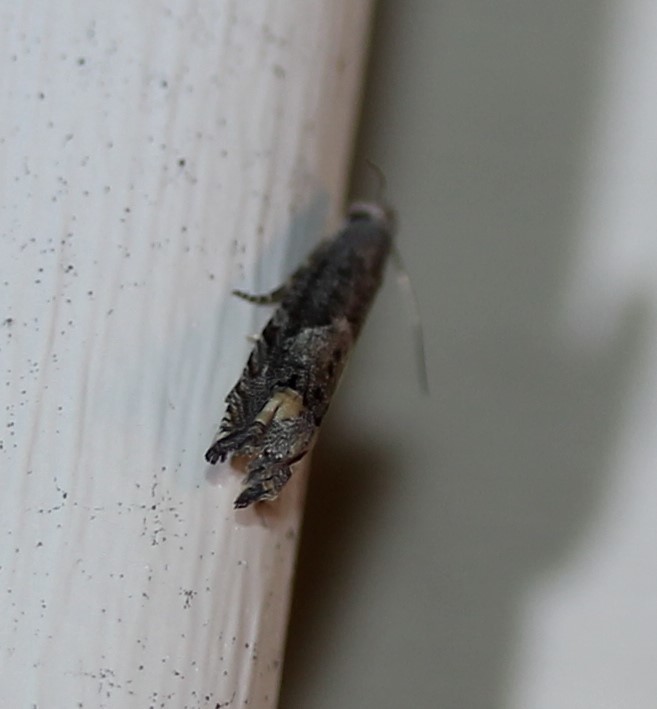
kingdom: Animalia
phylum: Arthropoda
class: Insecta
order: Lepidoptera
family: Tortricidae
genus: Epiblema
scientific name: Epiblema strenuana
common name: Ragweed borer moth
